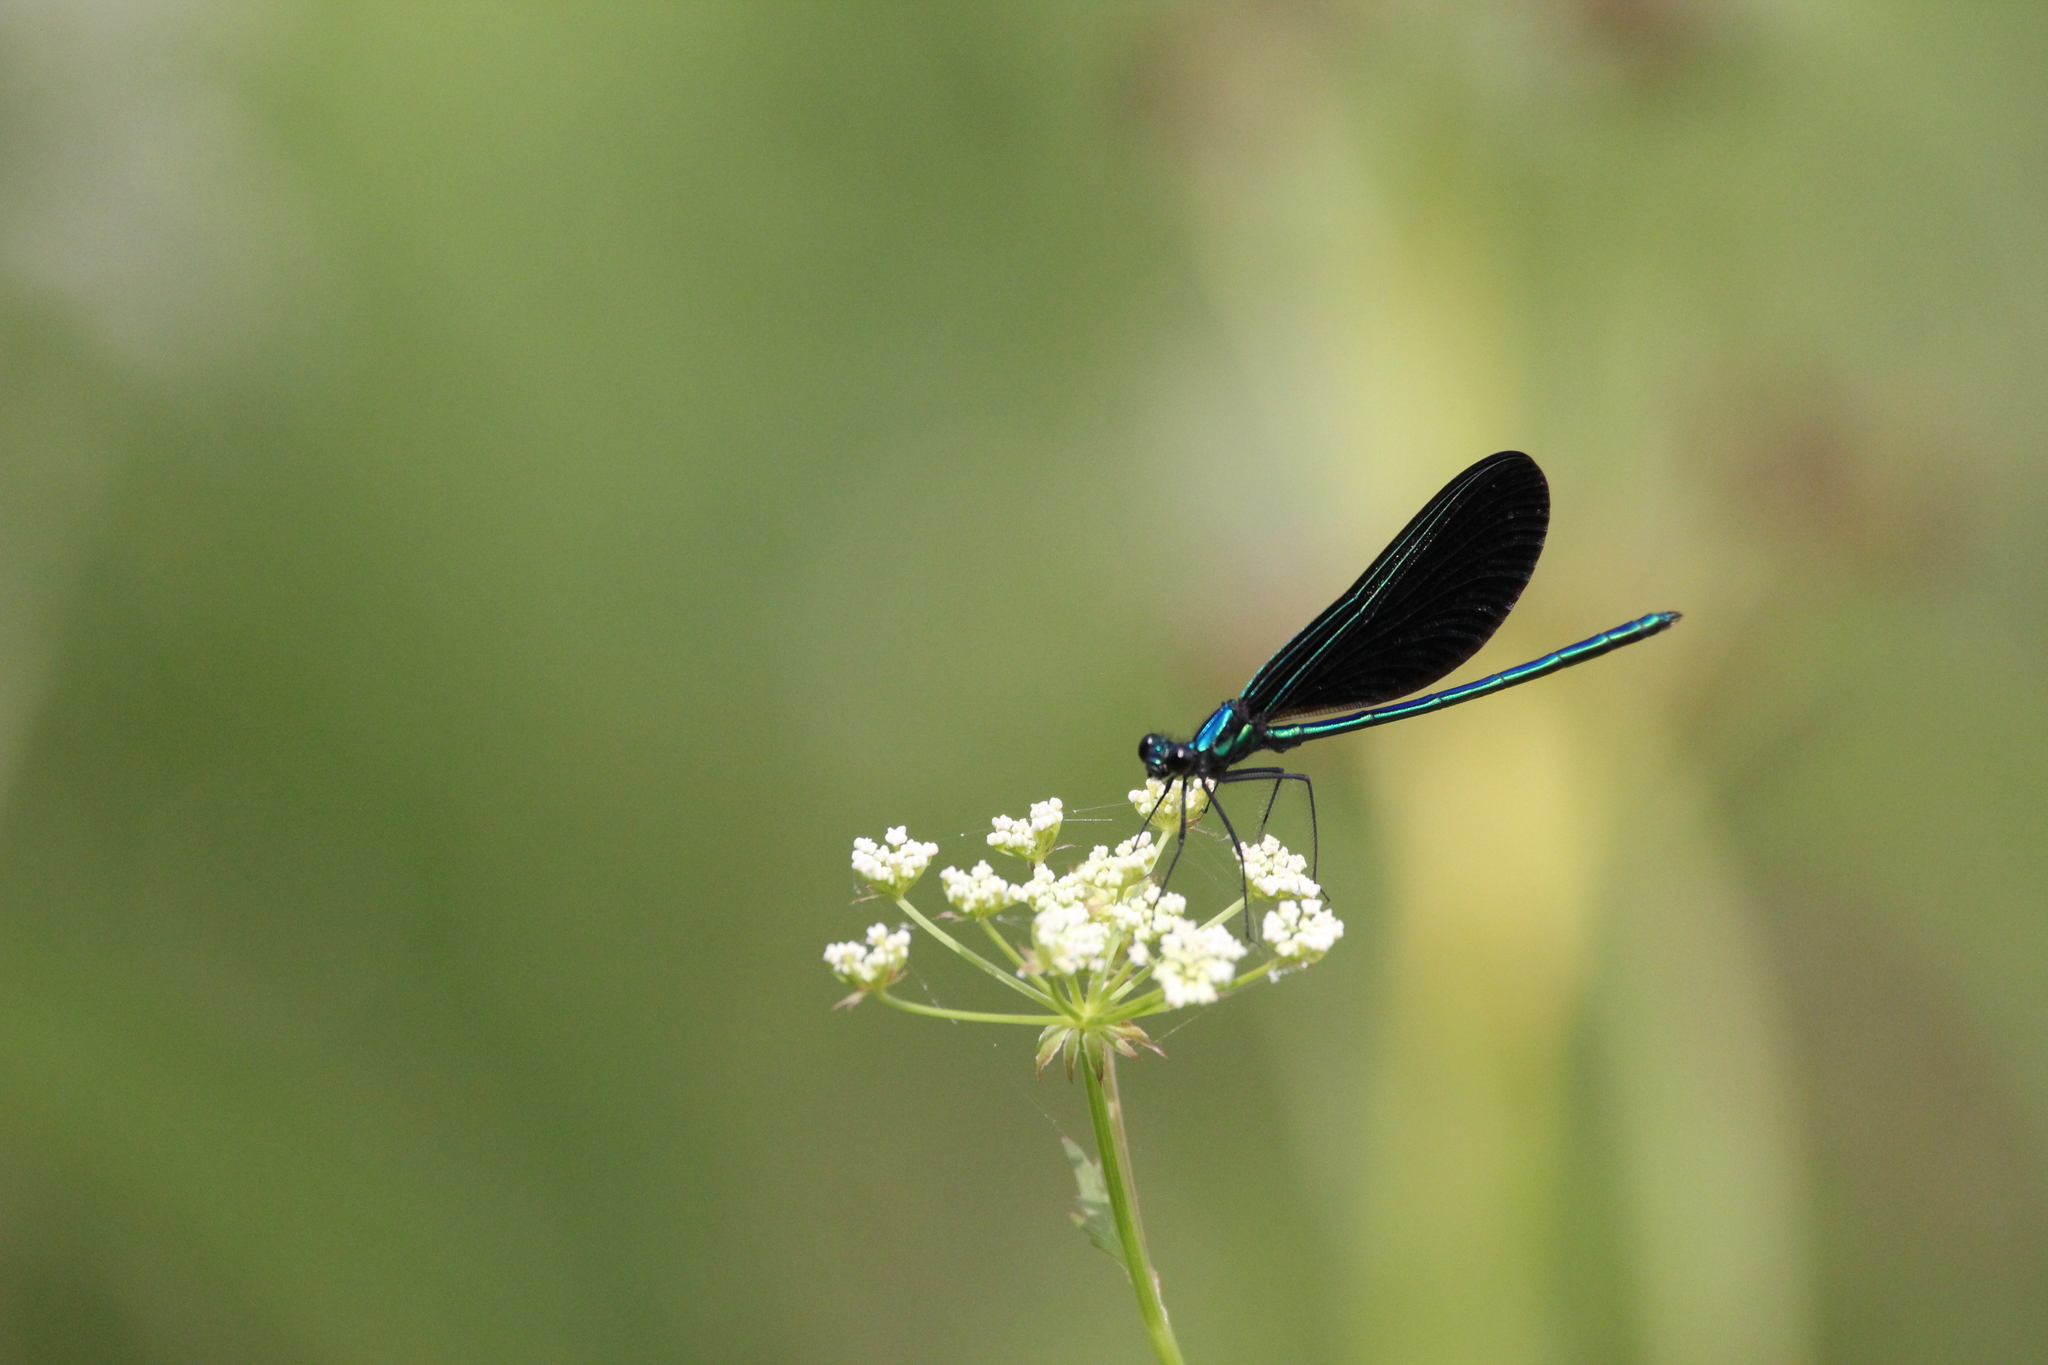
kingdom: Animalia
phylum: Arthropoda
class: Insecta
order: Odonata
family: Calopterygidae
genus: Calopteryx
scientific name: Calopteryx maculata
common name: Ebony jewelwing
